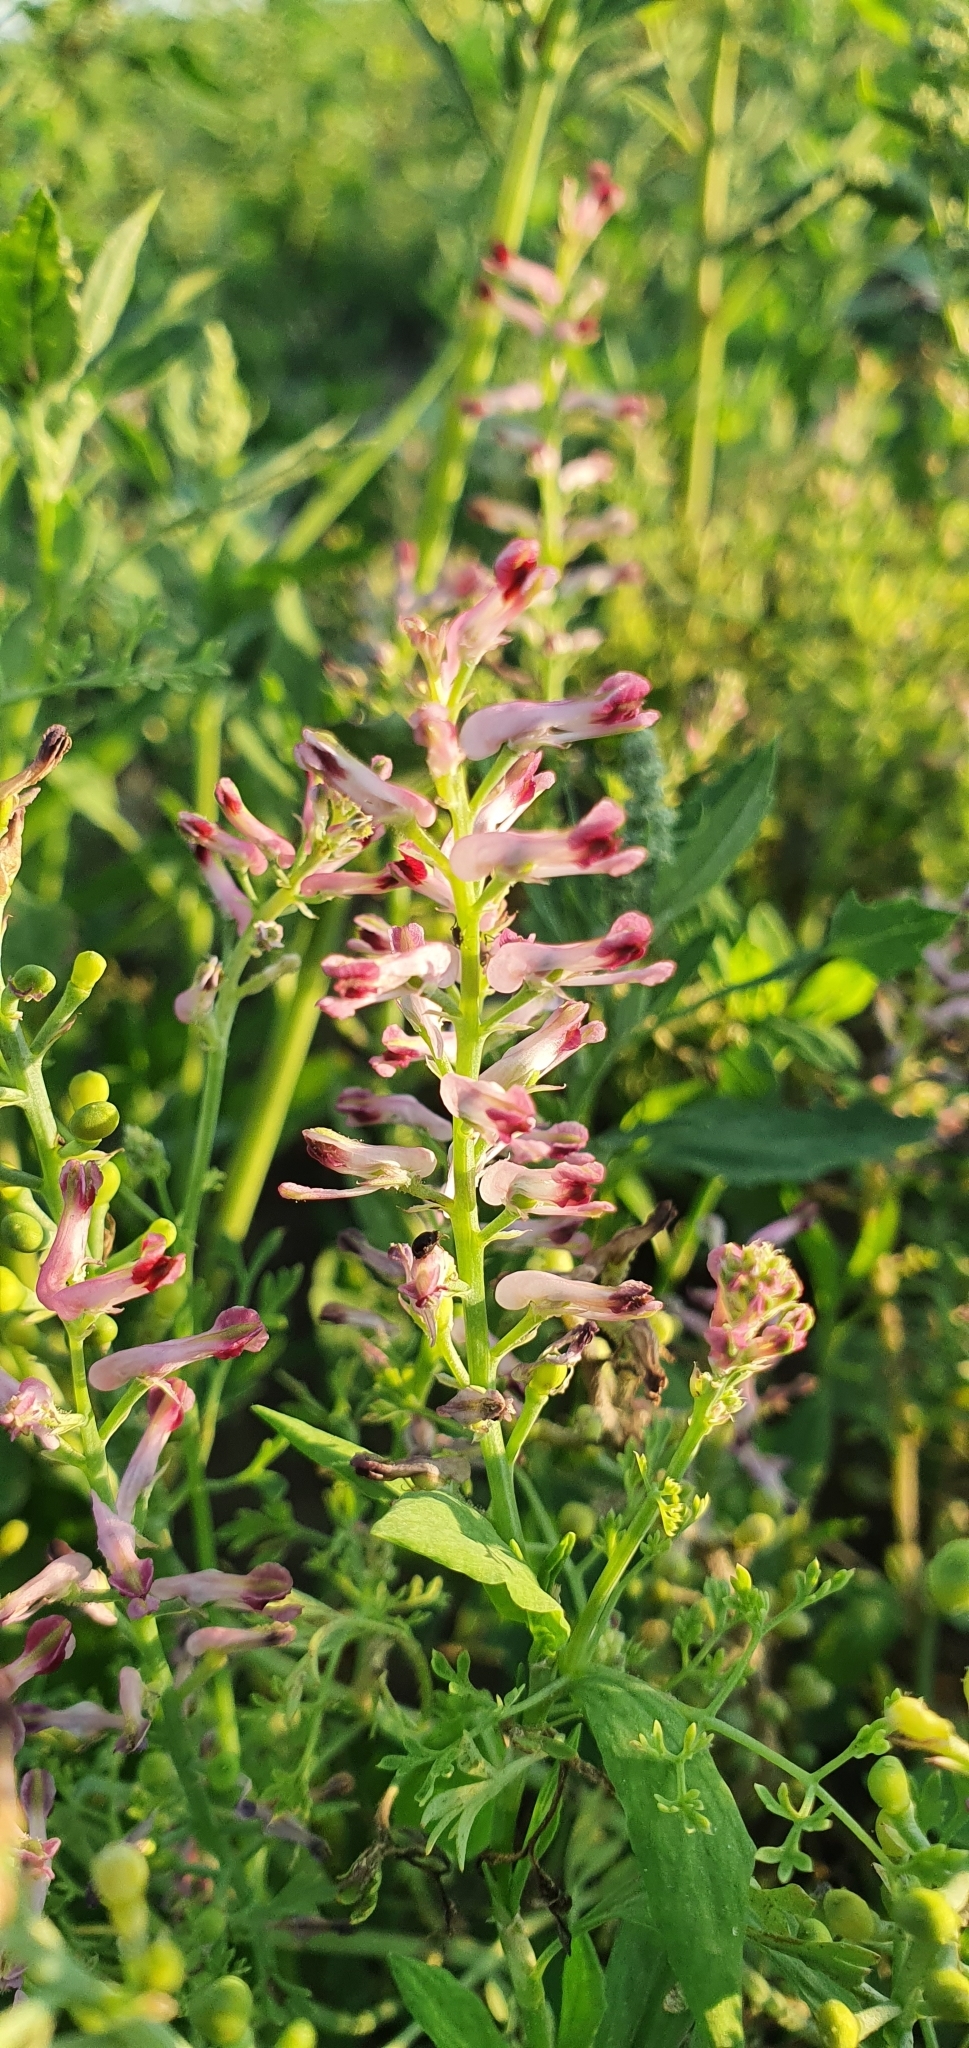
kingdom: Plantae
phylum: Tracheophyta
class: Magnoliopsida
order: Ranunculales
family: Papaveraceae
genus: Fumaria
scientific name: Fumaria officinalis
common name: Common fumitory
